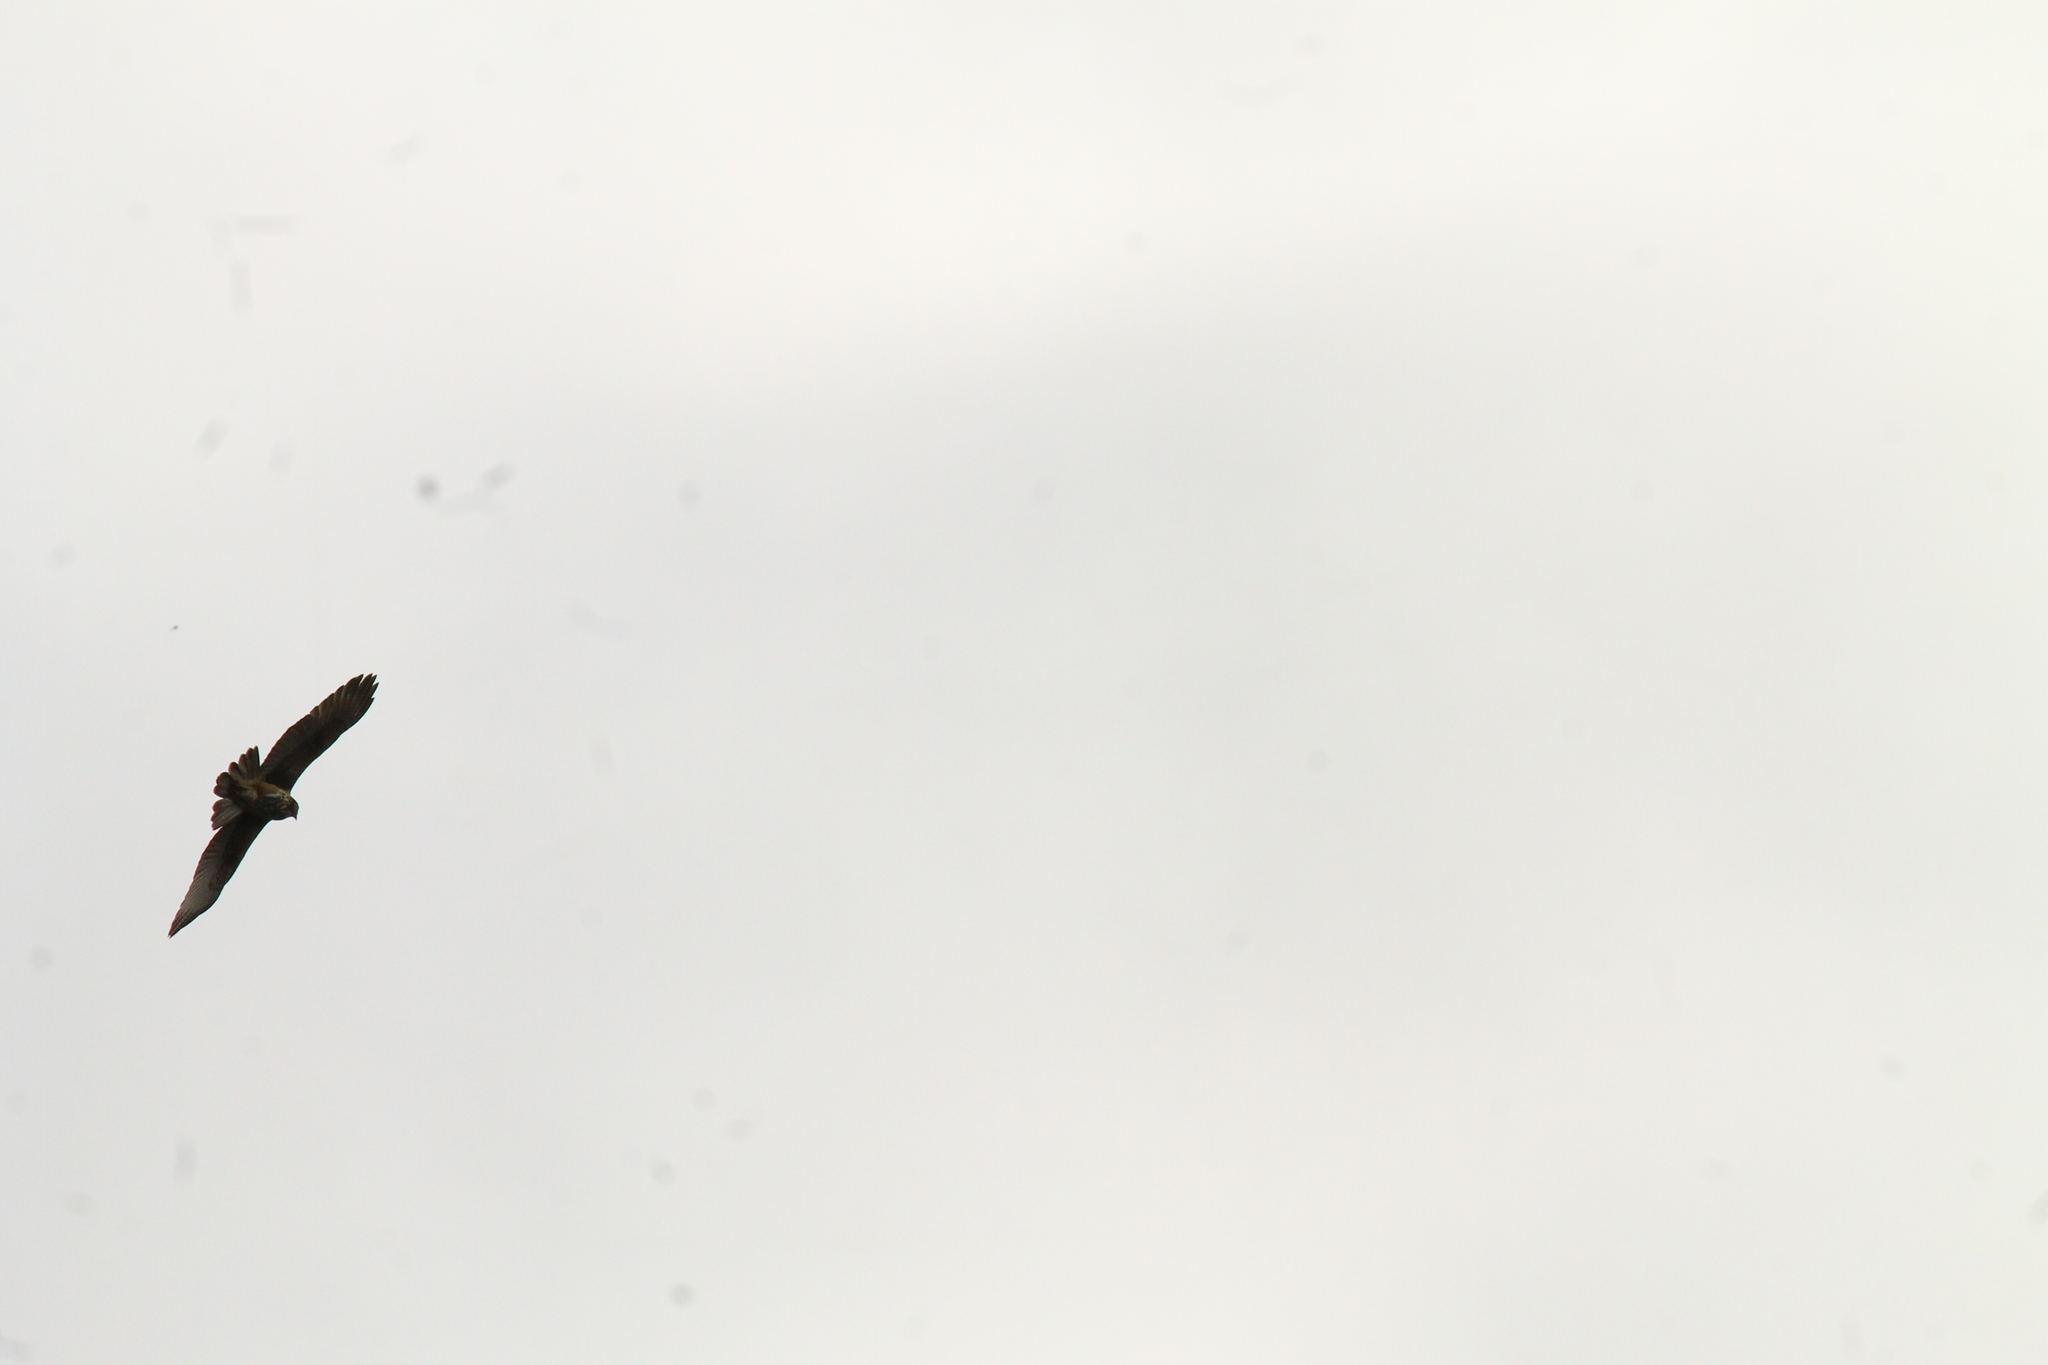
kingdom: Animalia
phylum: Chordata
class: Aves
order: Accipitriformes
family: Accipitridae
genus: Parabuteo
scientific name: Parabuteo unicinctus
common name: Harris's hawk
